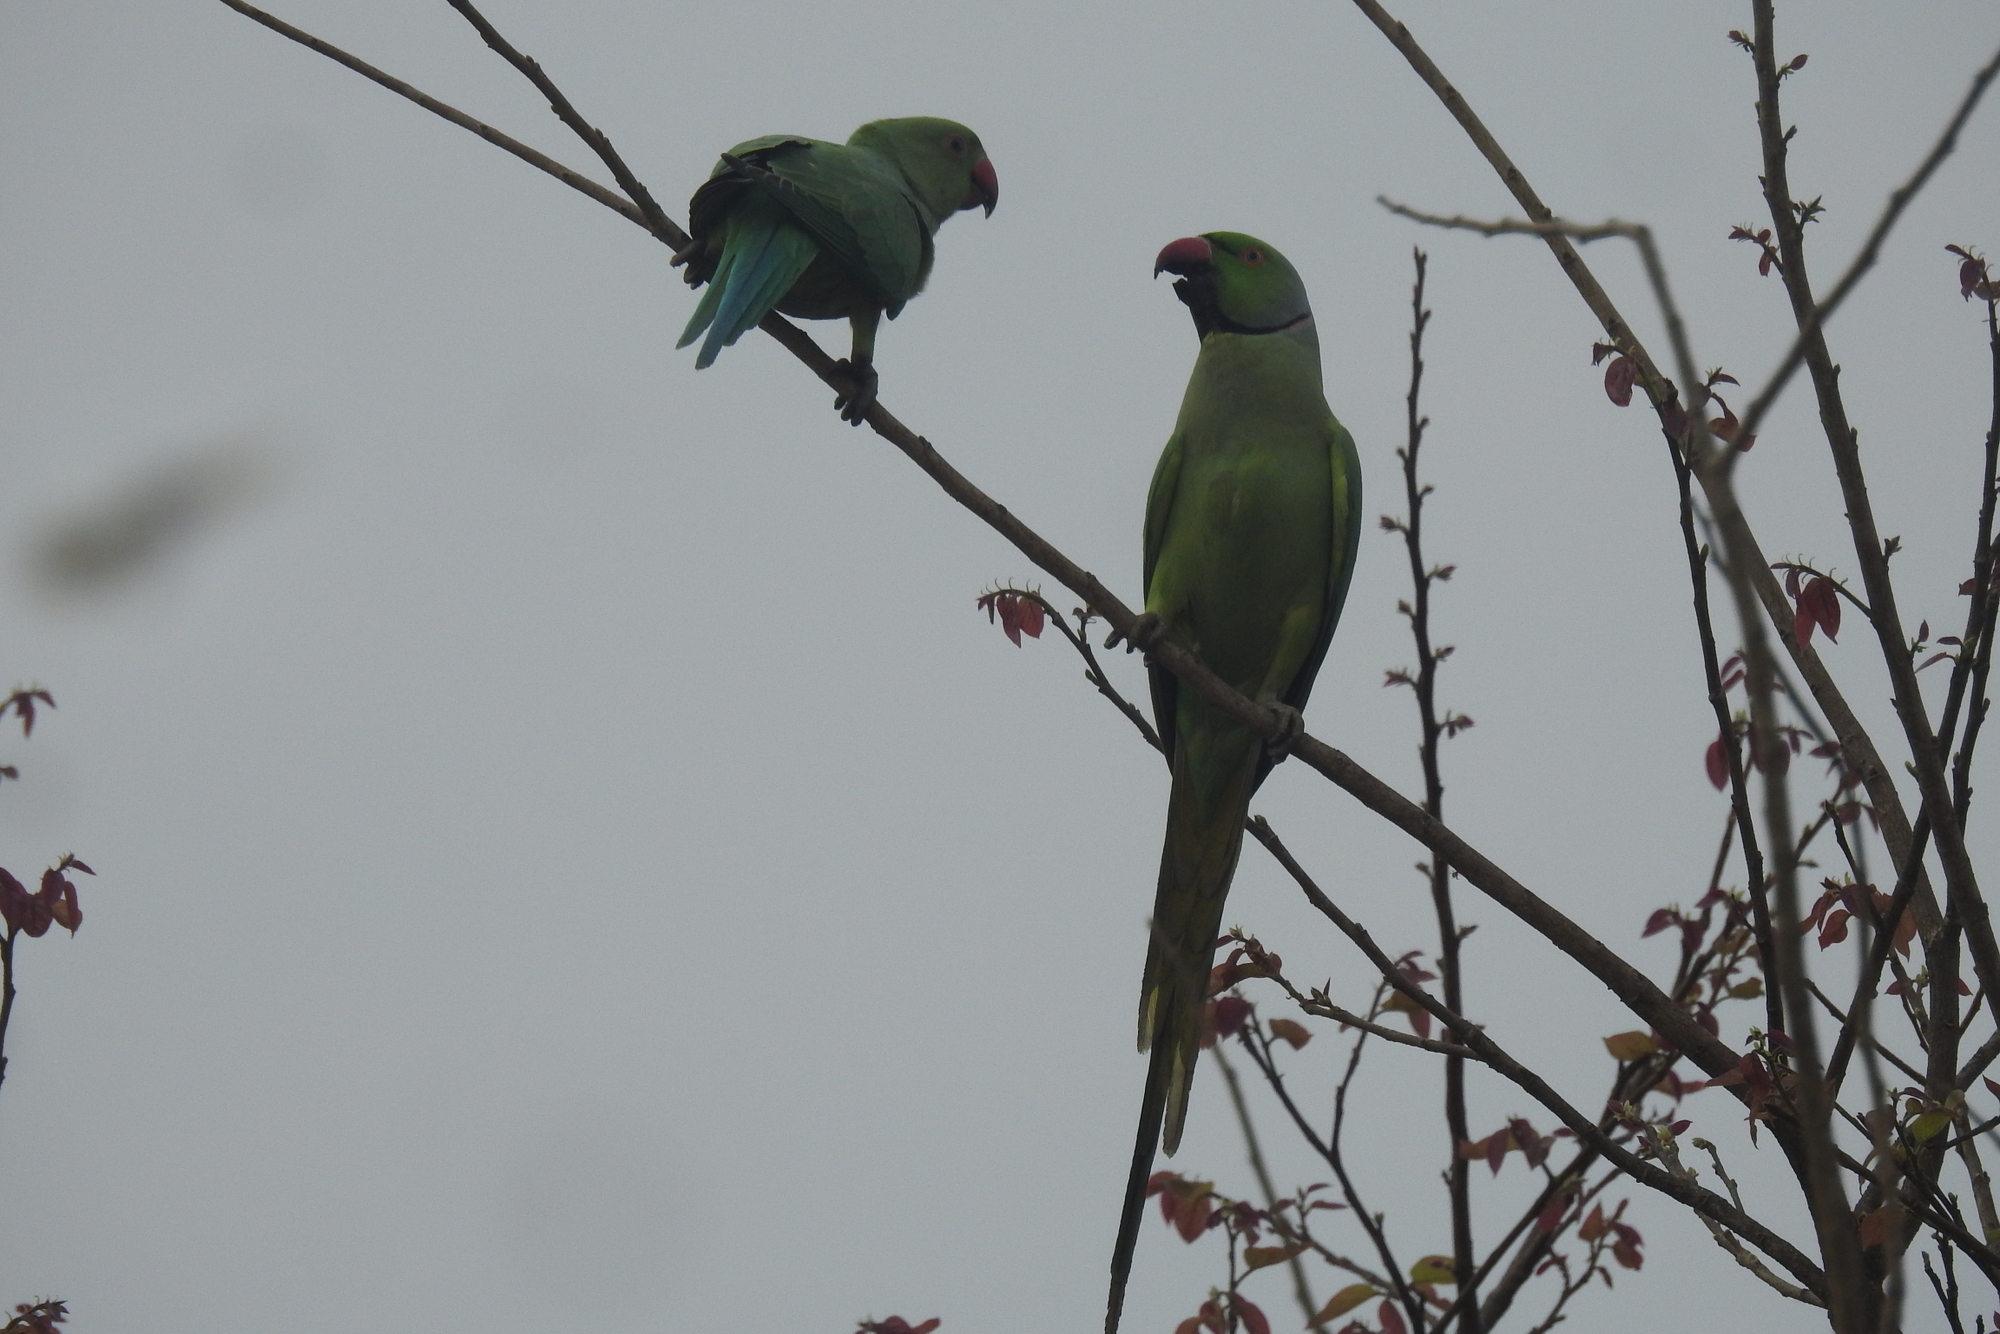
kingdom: Animalia
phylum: Chordata
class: Aves
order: Psittaciformes
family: Psittacidae
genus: Psittacula
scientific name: Psittacula krameri
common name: Rose-ringed parakeet
